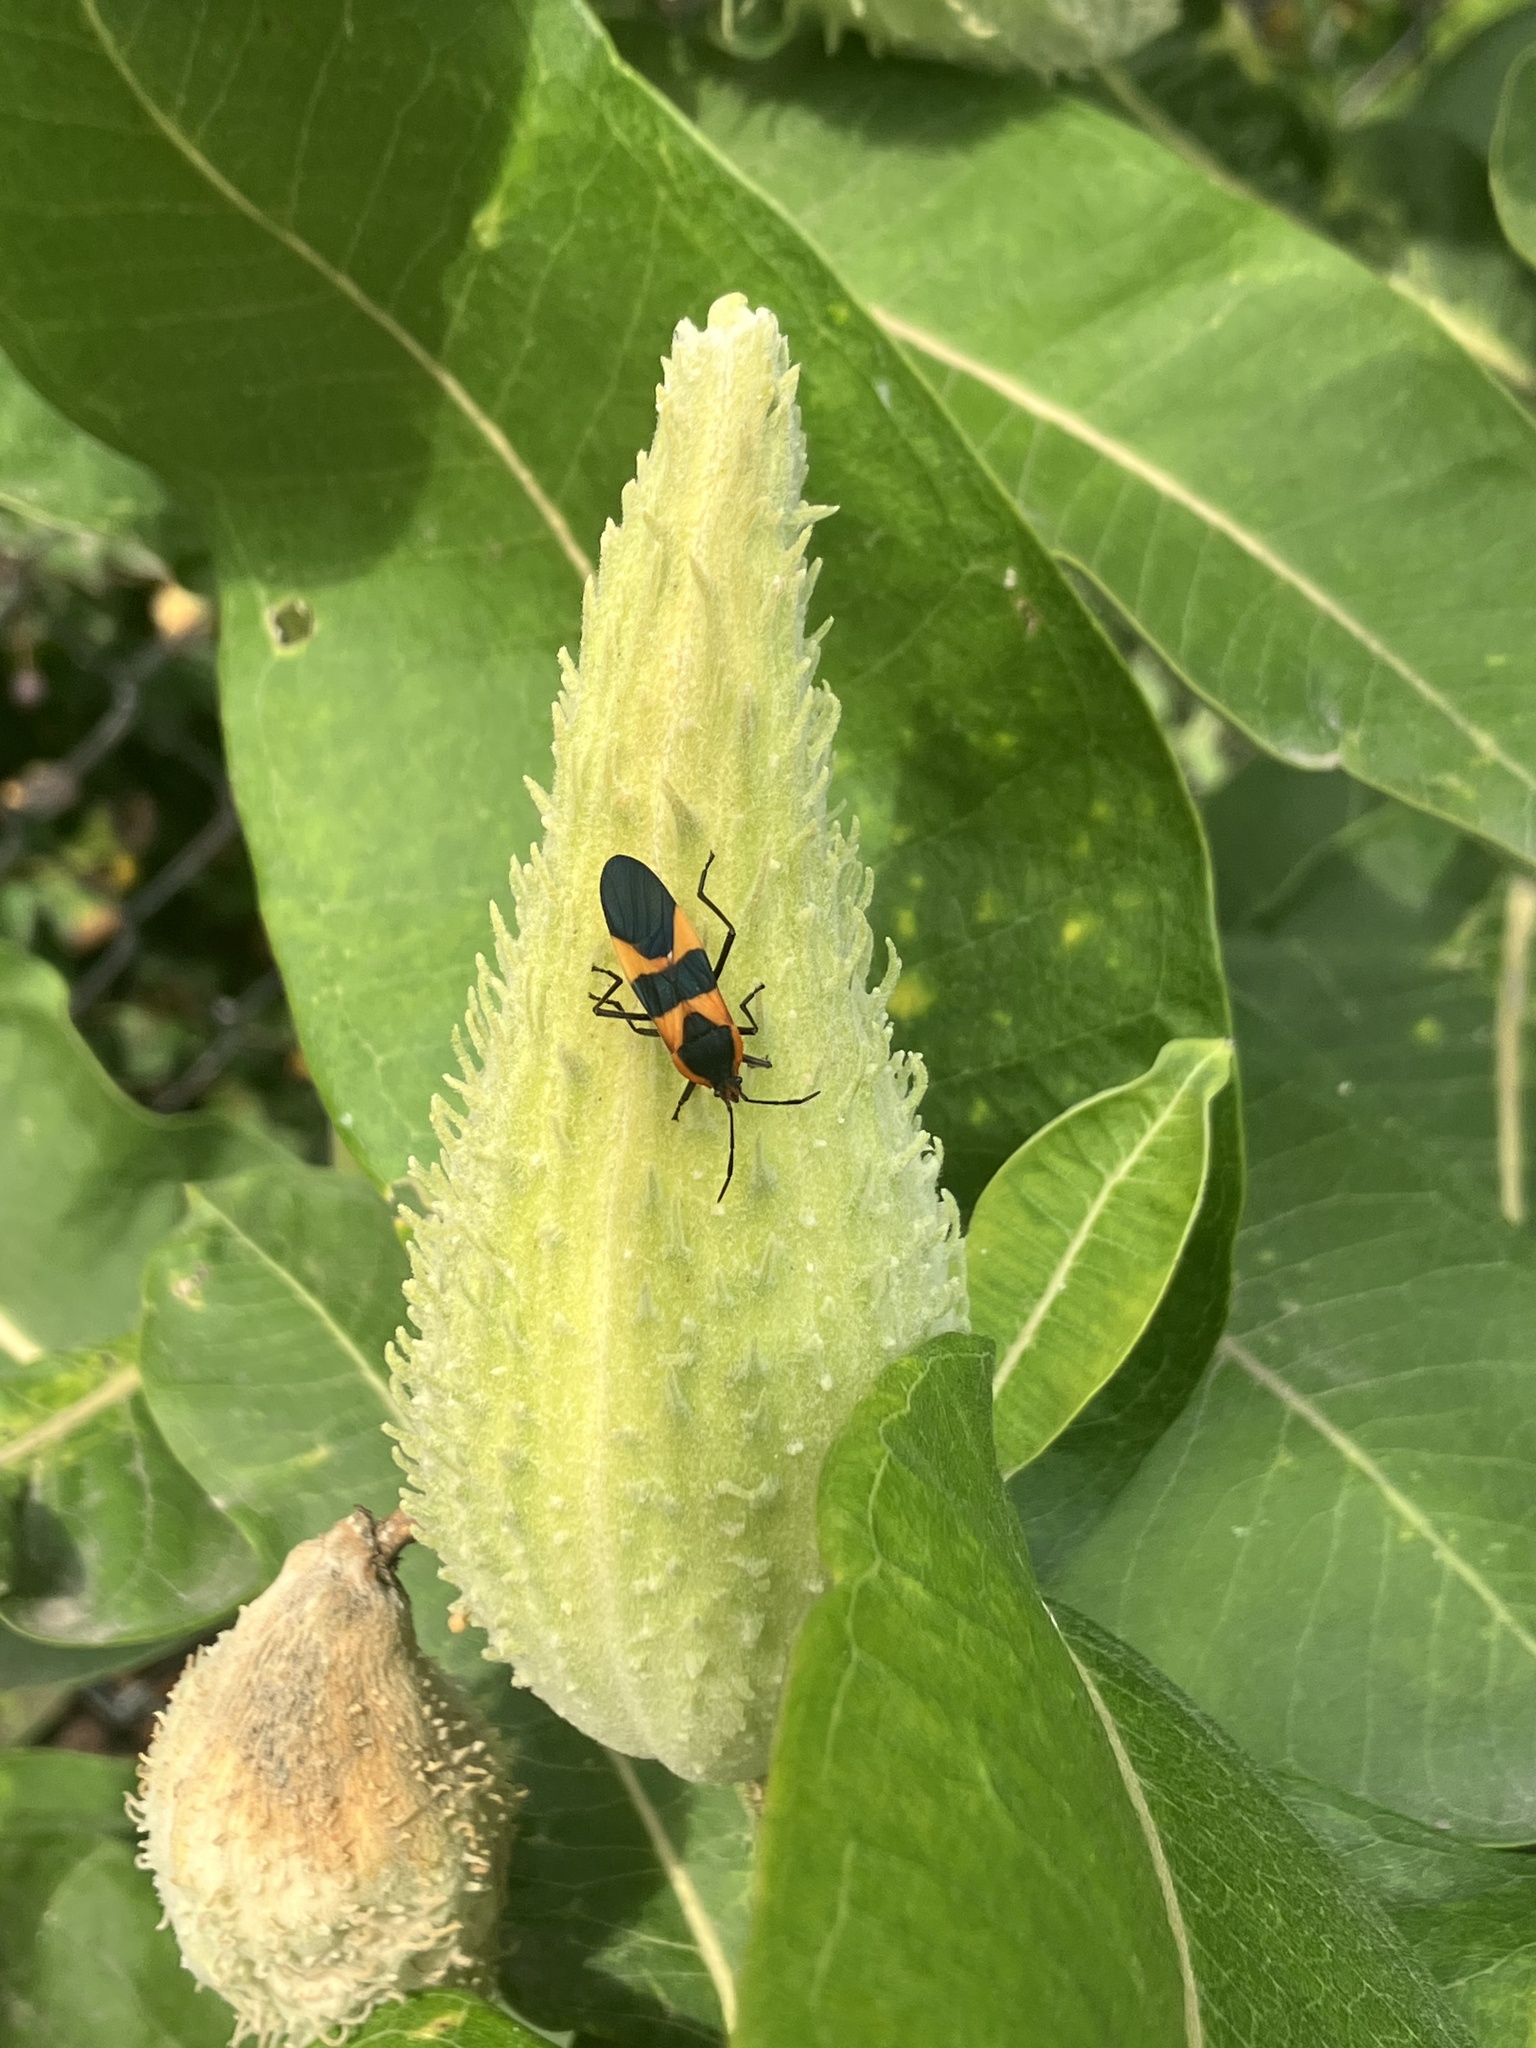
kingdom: Animalia
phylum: Arthropoda
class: Insecta
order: Hemiptera
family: Lygaeidae
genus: Oncopeltus
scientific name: Oncopeltus fasciatus
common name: Large milkweed bug
